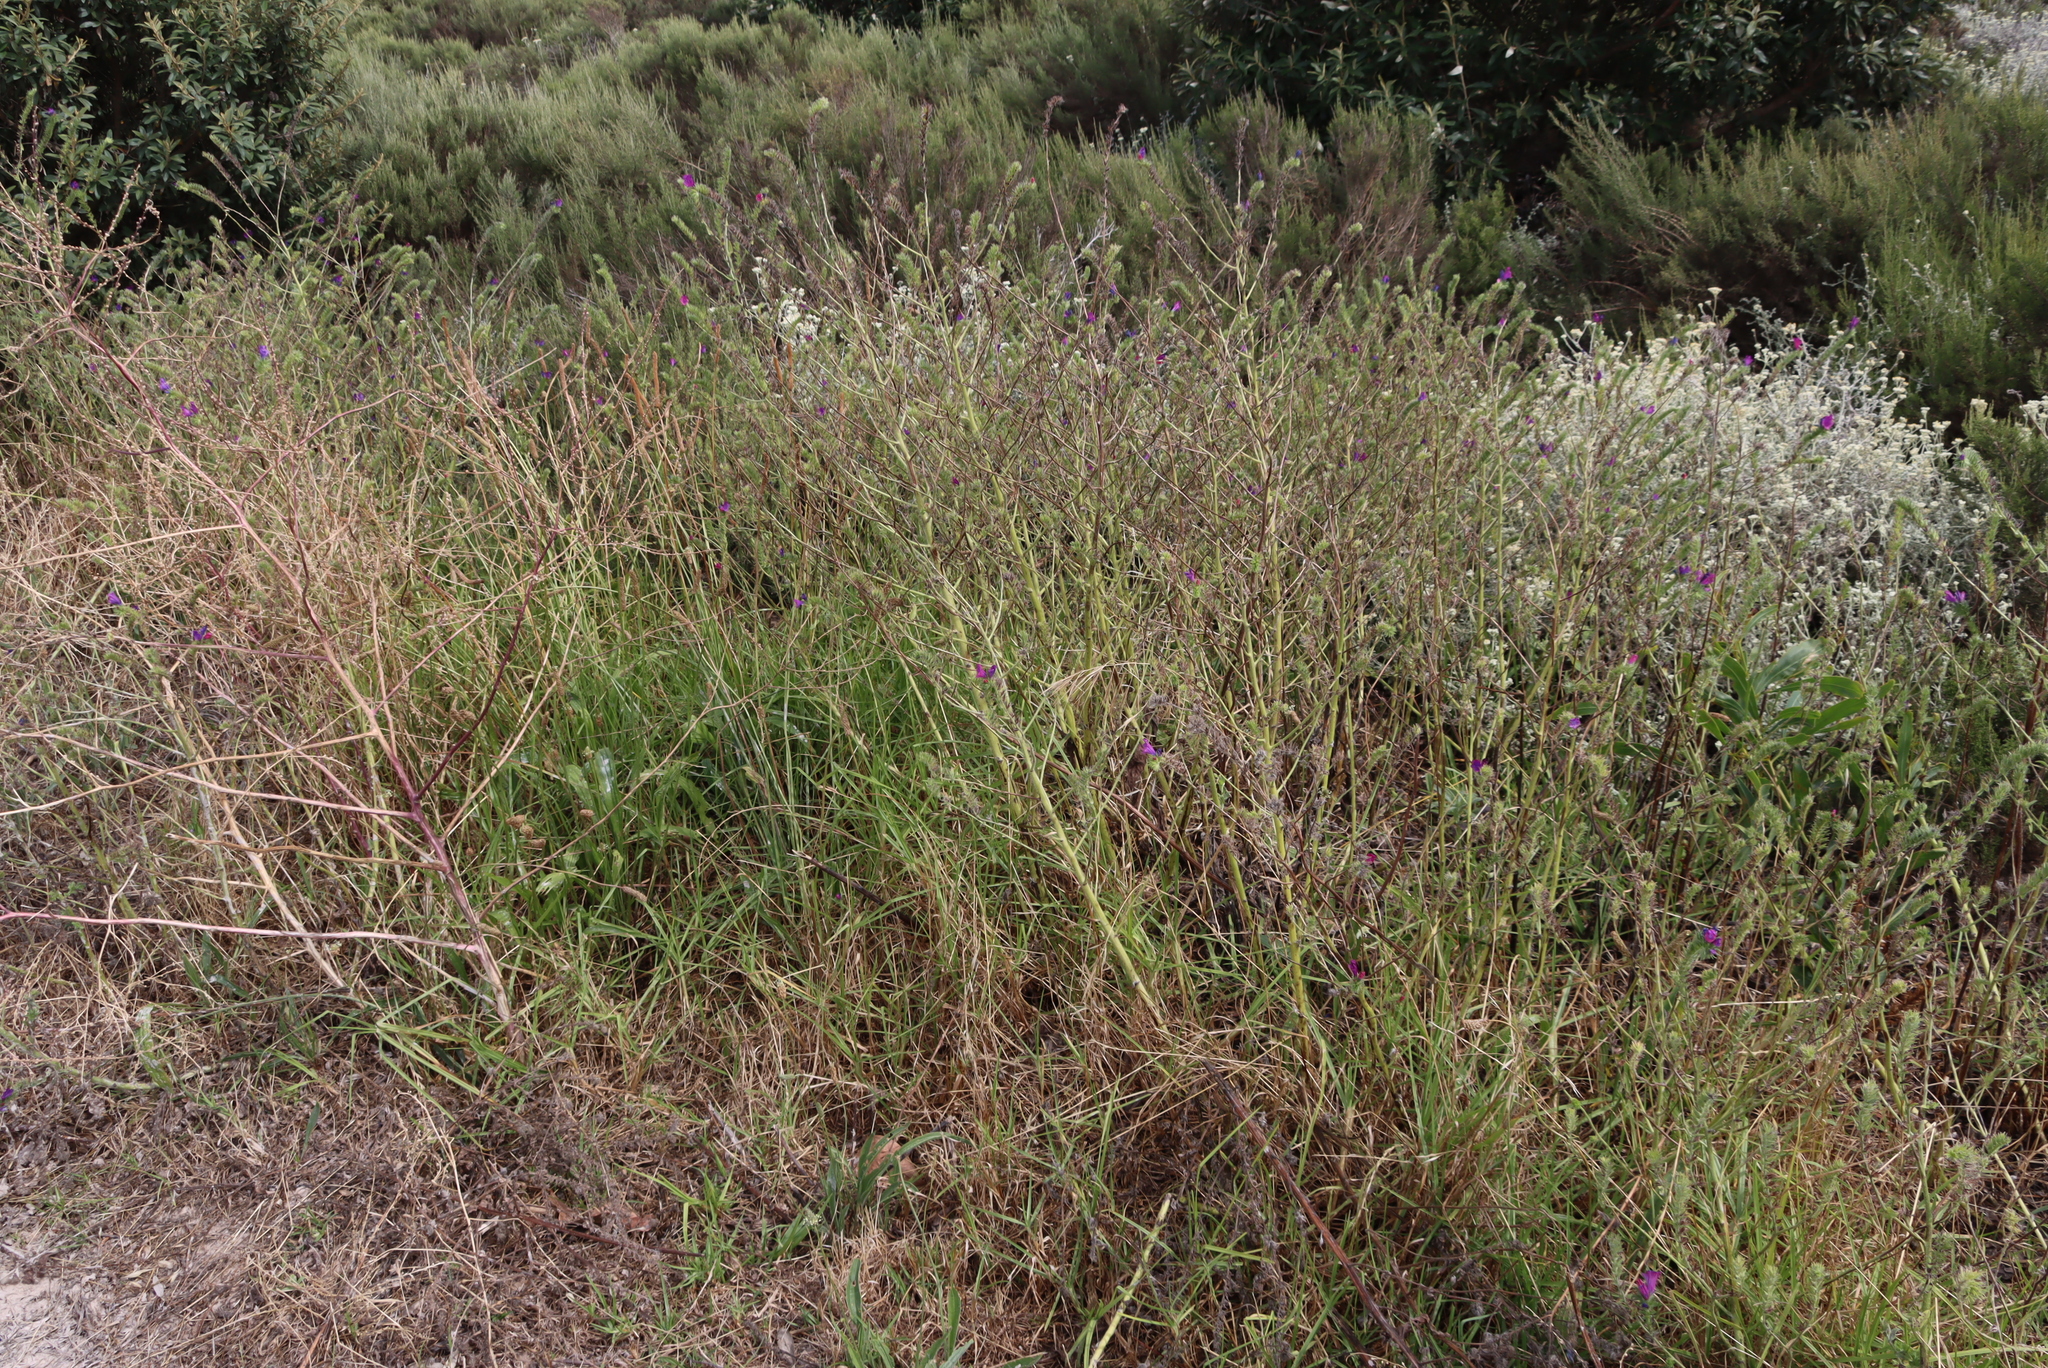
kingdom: Plantae
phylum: Tracheophyta
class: Magnoliopsida
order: Boraginales
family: Boraginaceae
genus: Echium
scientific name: Echium plantagineum
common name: Purple viper's-bugloss
